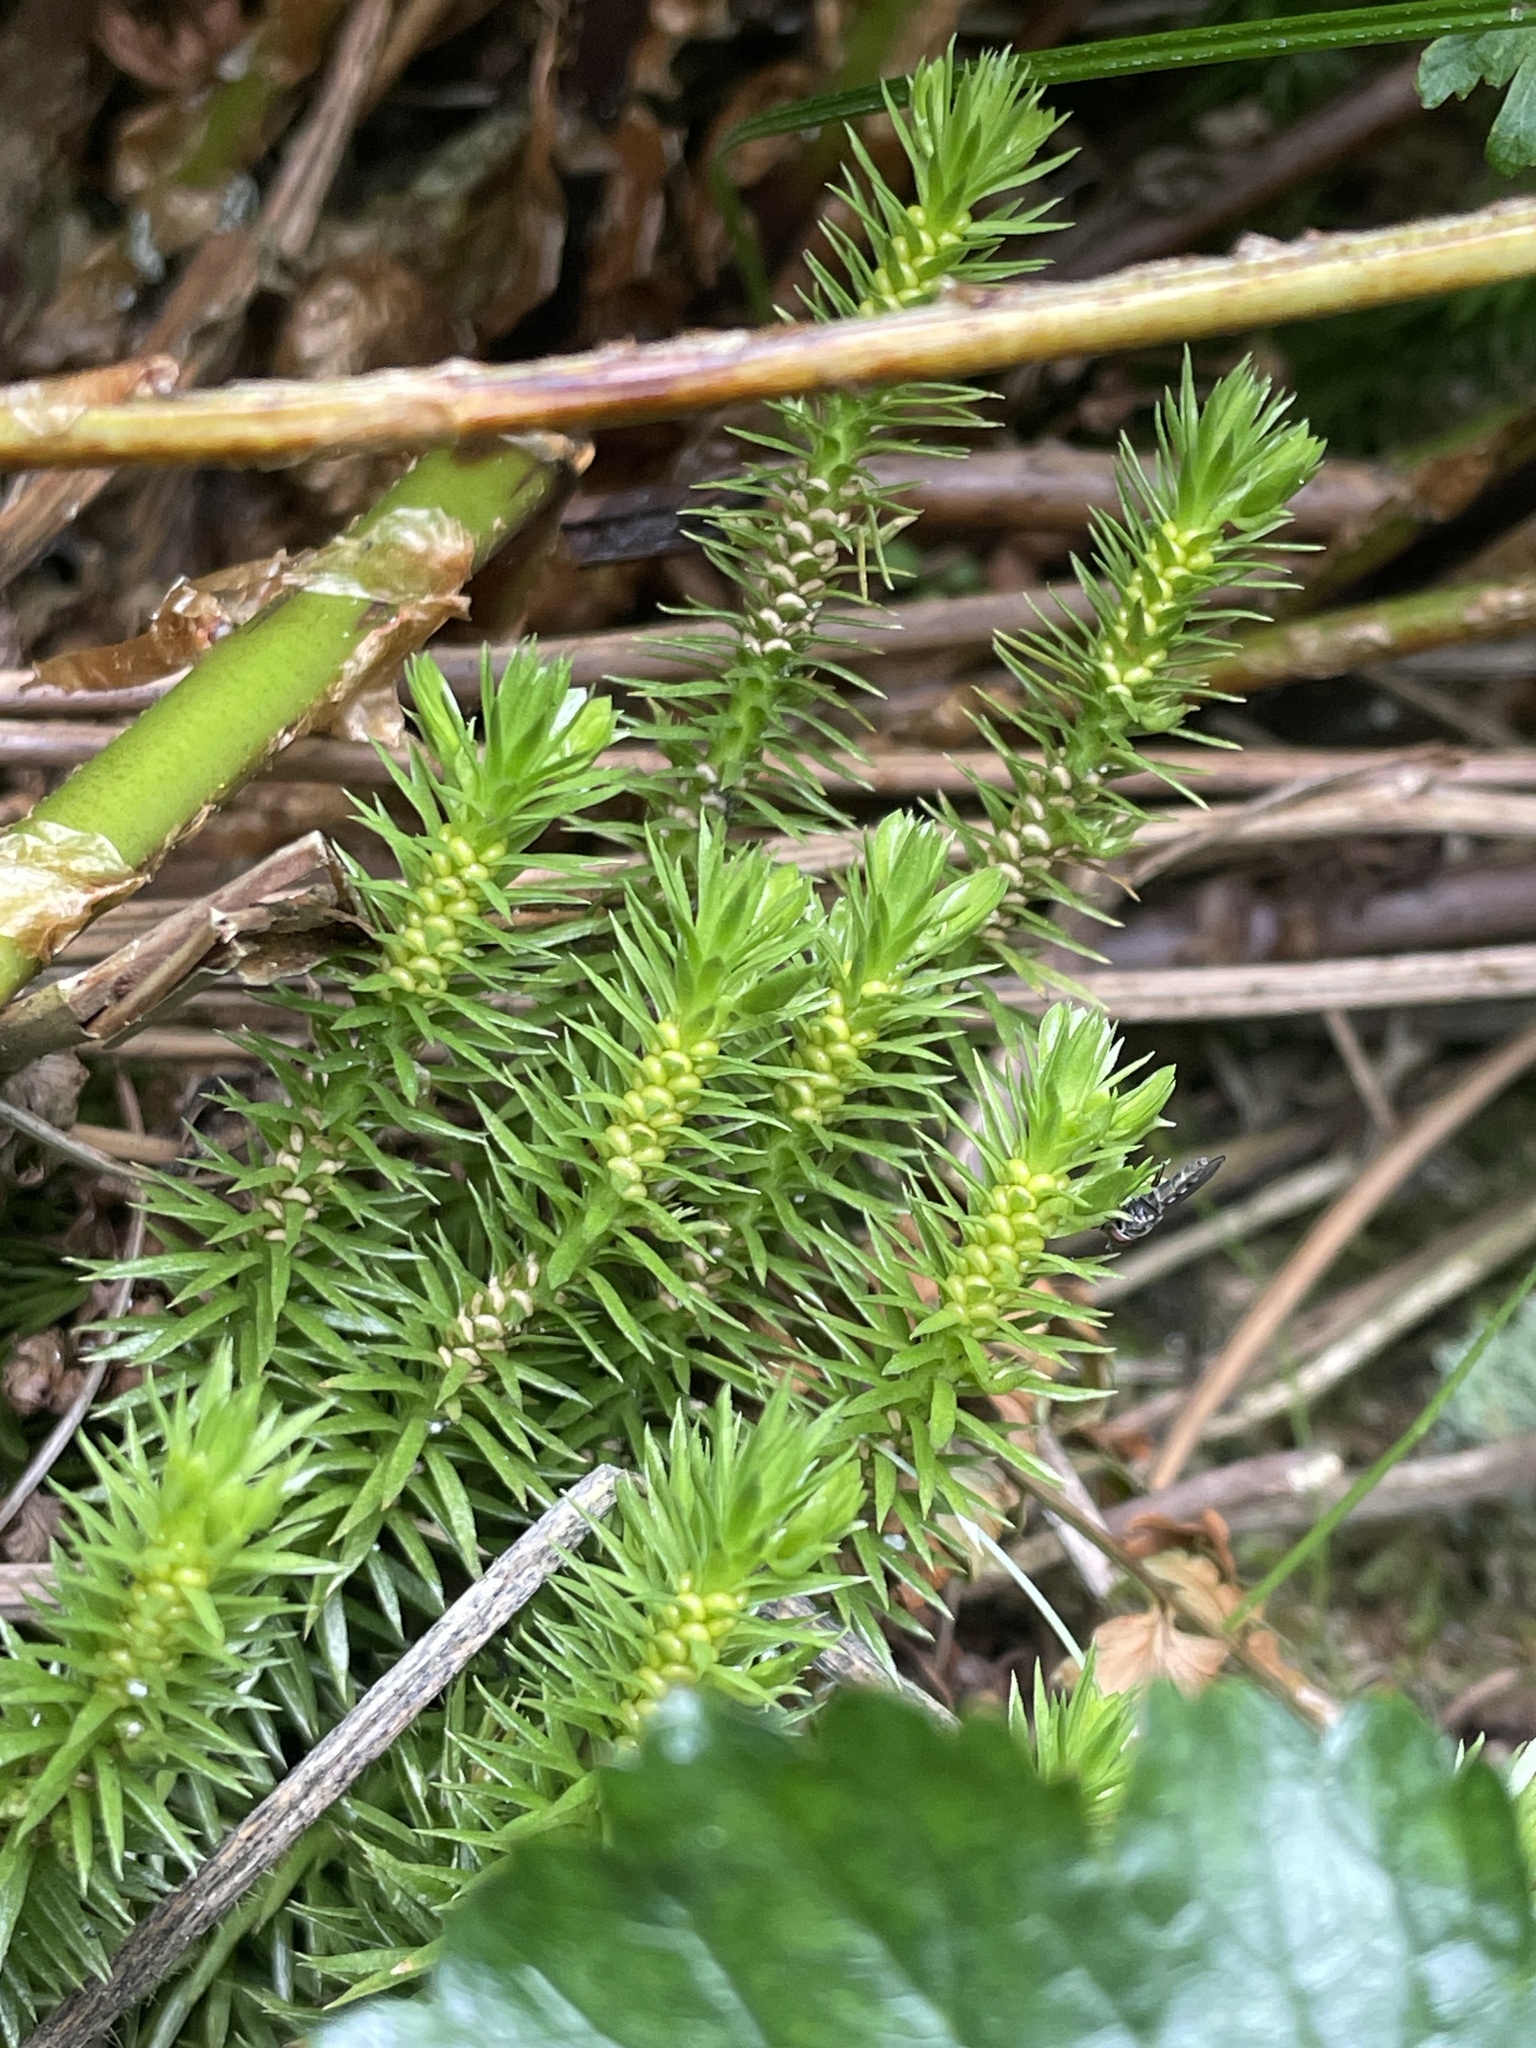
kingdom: Plantae
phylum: Tracheophyta
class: Lycopodiopsida
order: Lycopodiales
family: Lycopodiaceae
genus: Huperzia
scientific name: Huperzia lucidula
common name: Shining clubmoss
